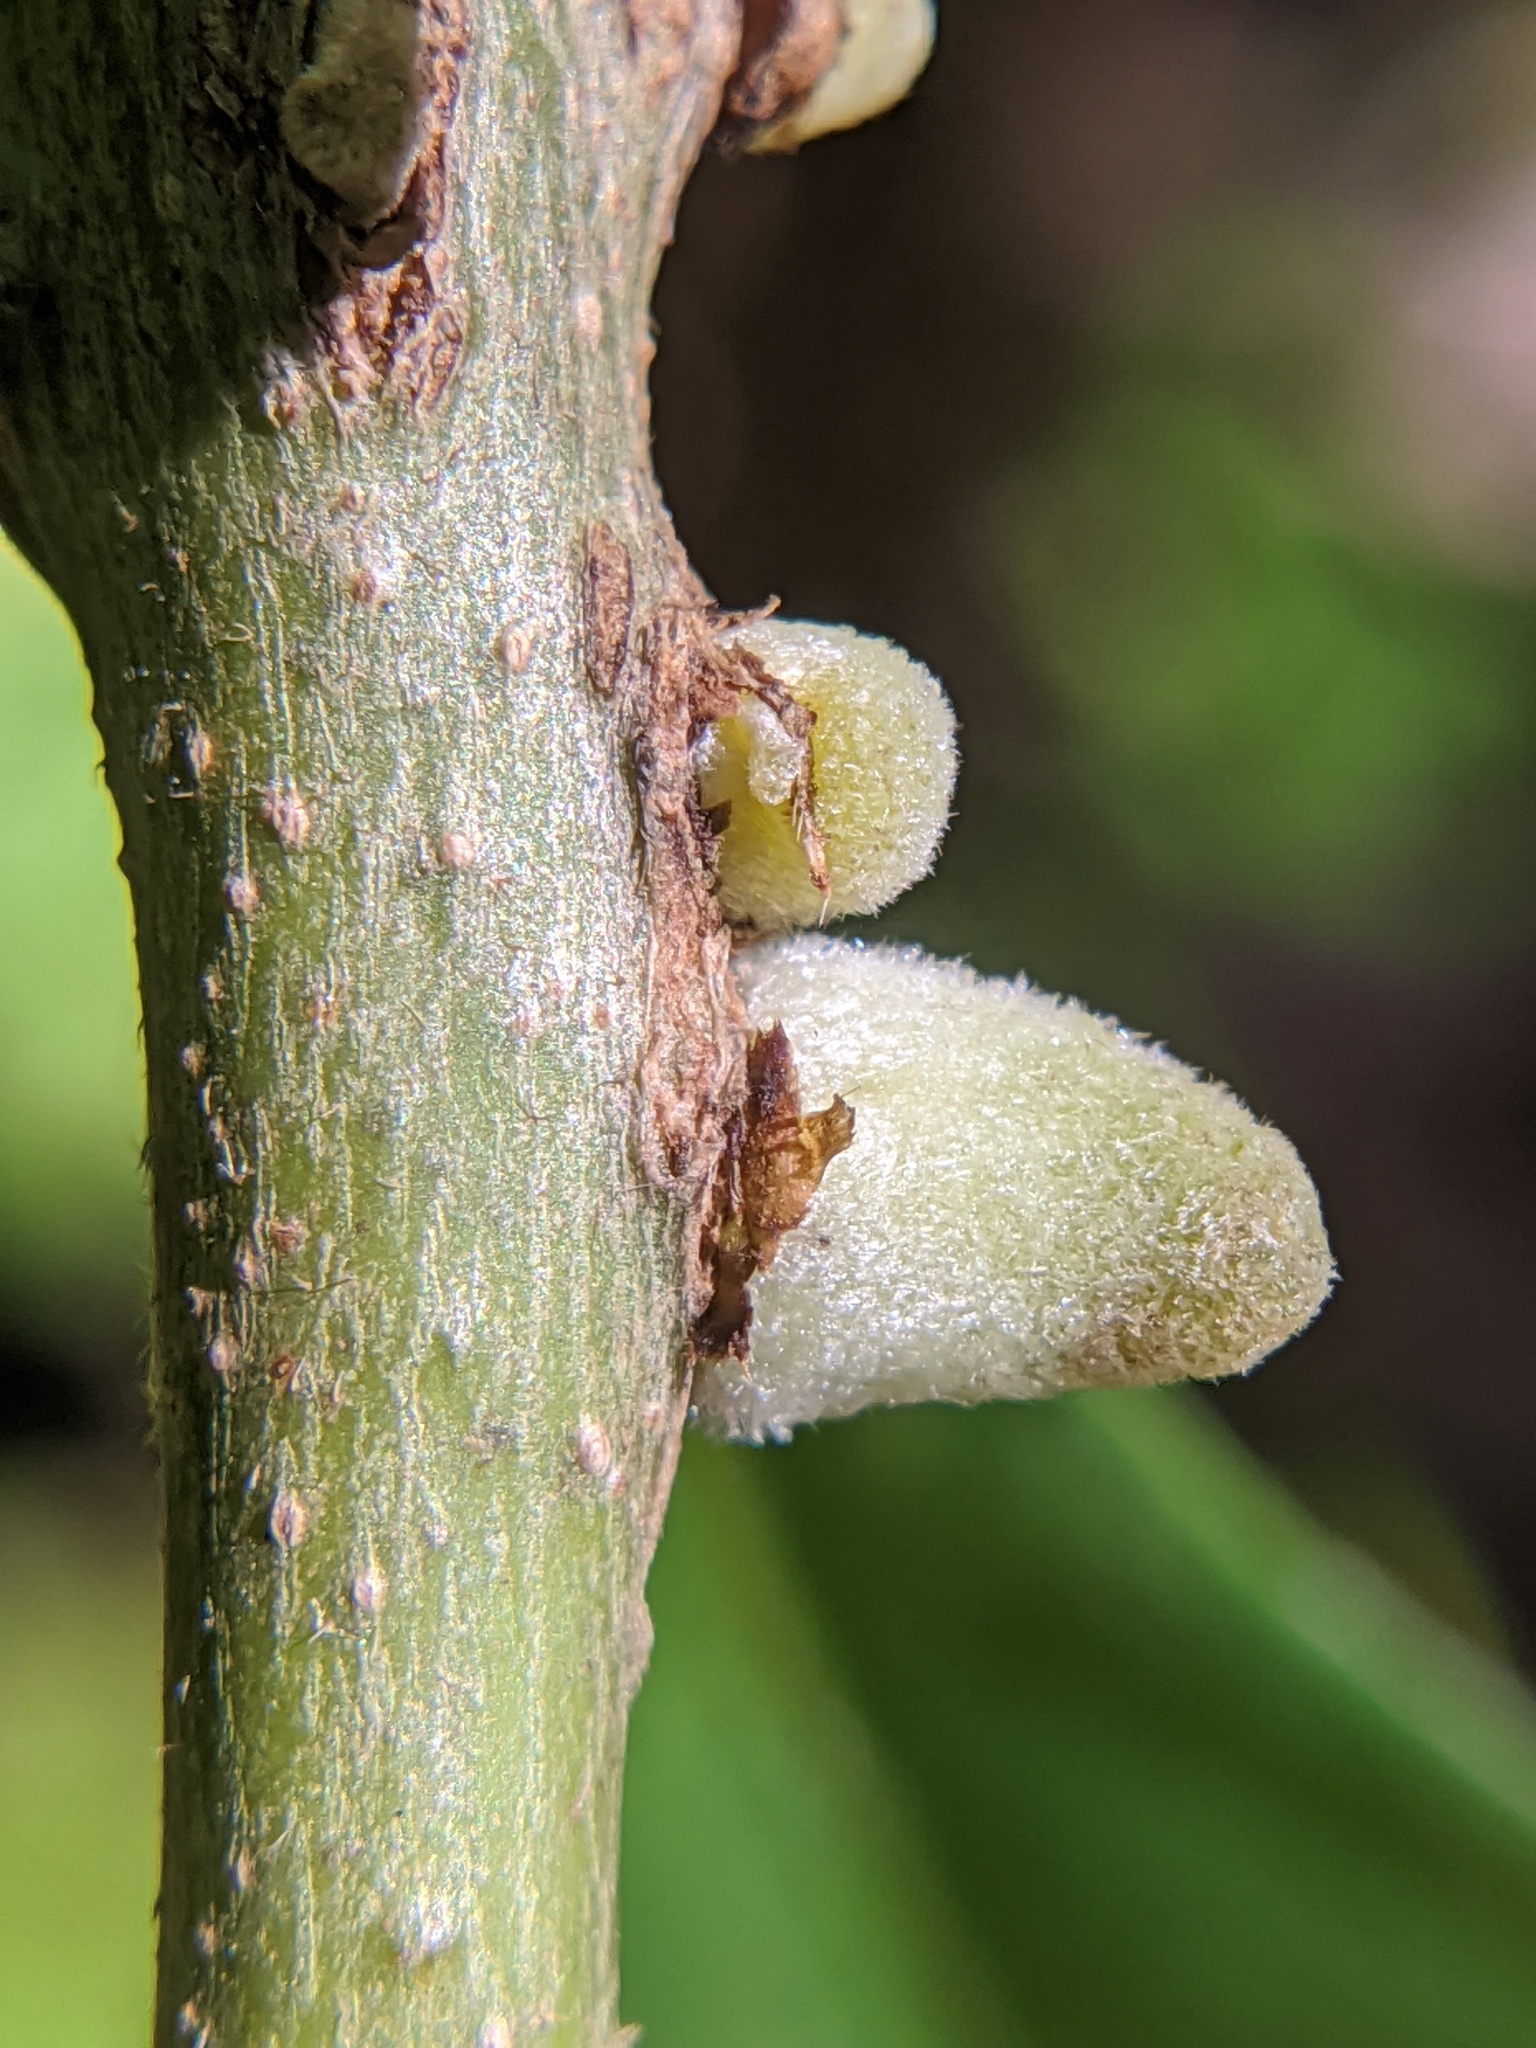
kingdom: Plantae
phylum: Tracheophyta
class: Magnoliopsida
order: Fagales
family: Fagaceae
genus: Quercus
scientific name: Quercus macrocarpa
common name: Bur oak
